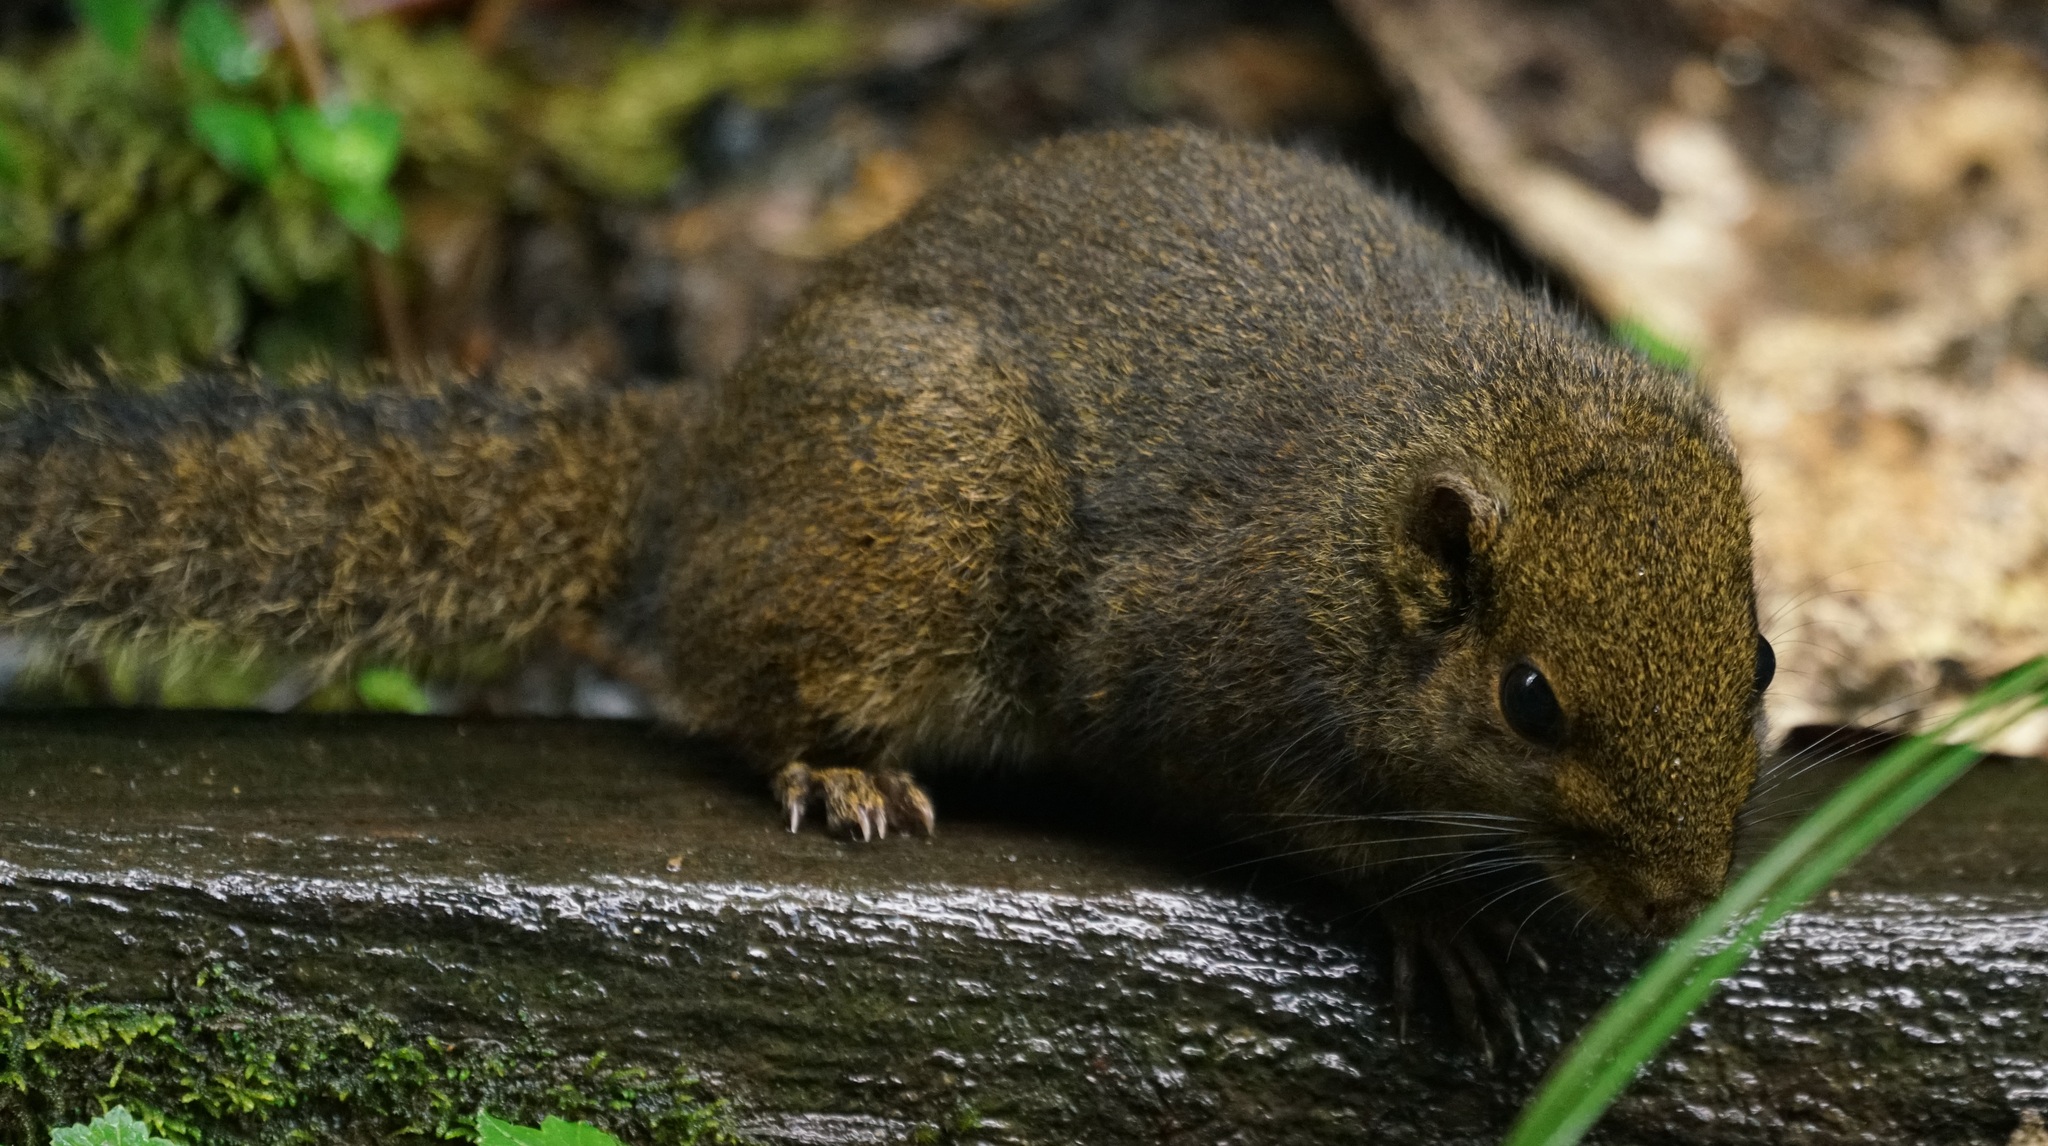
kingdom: Animalia
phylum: Chordata
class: Mammalia
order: Rodentia
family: Sciuridae
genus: Sundasciurus
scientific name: Sundasciurus everetti
